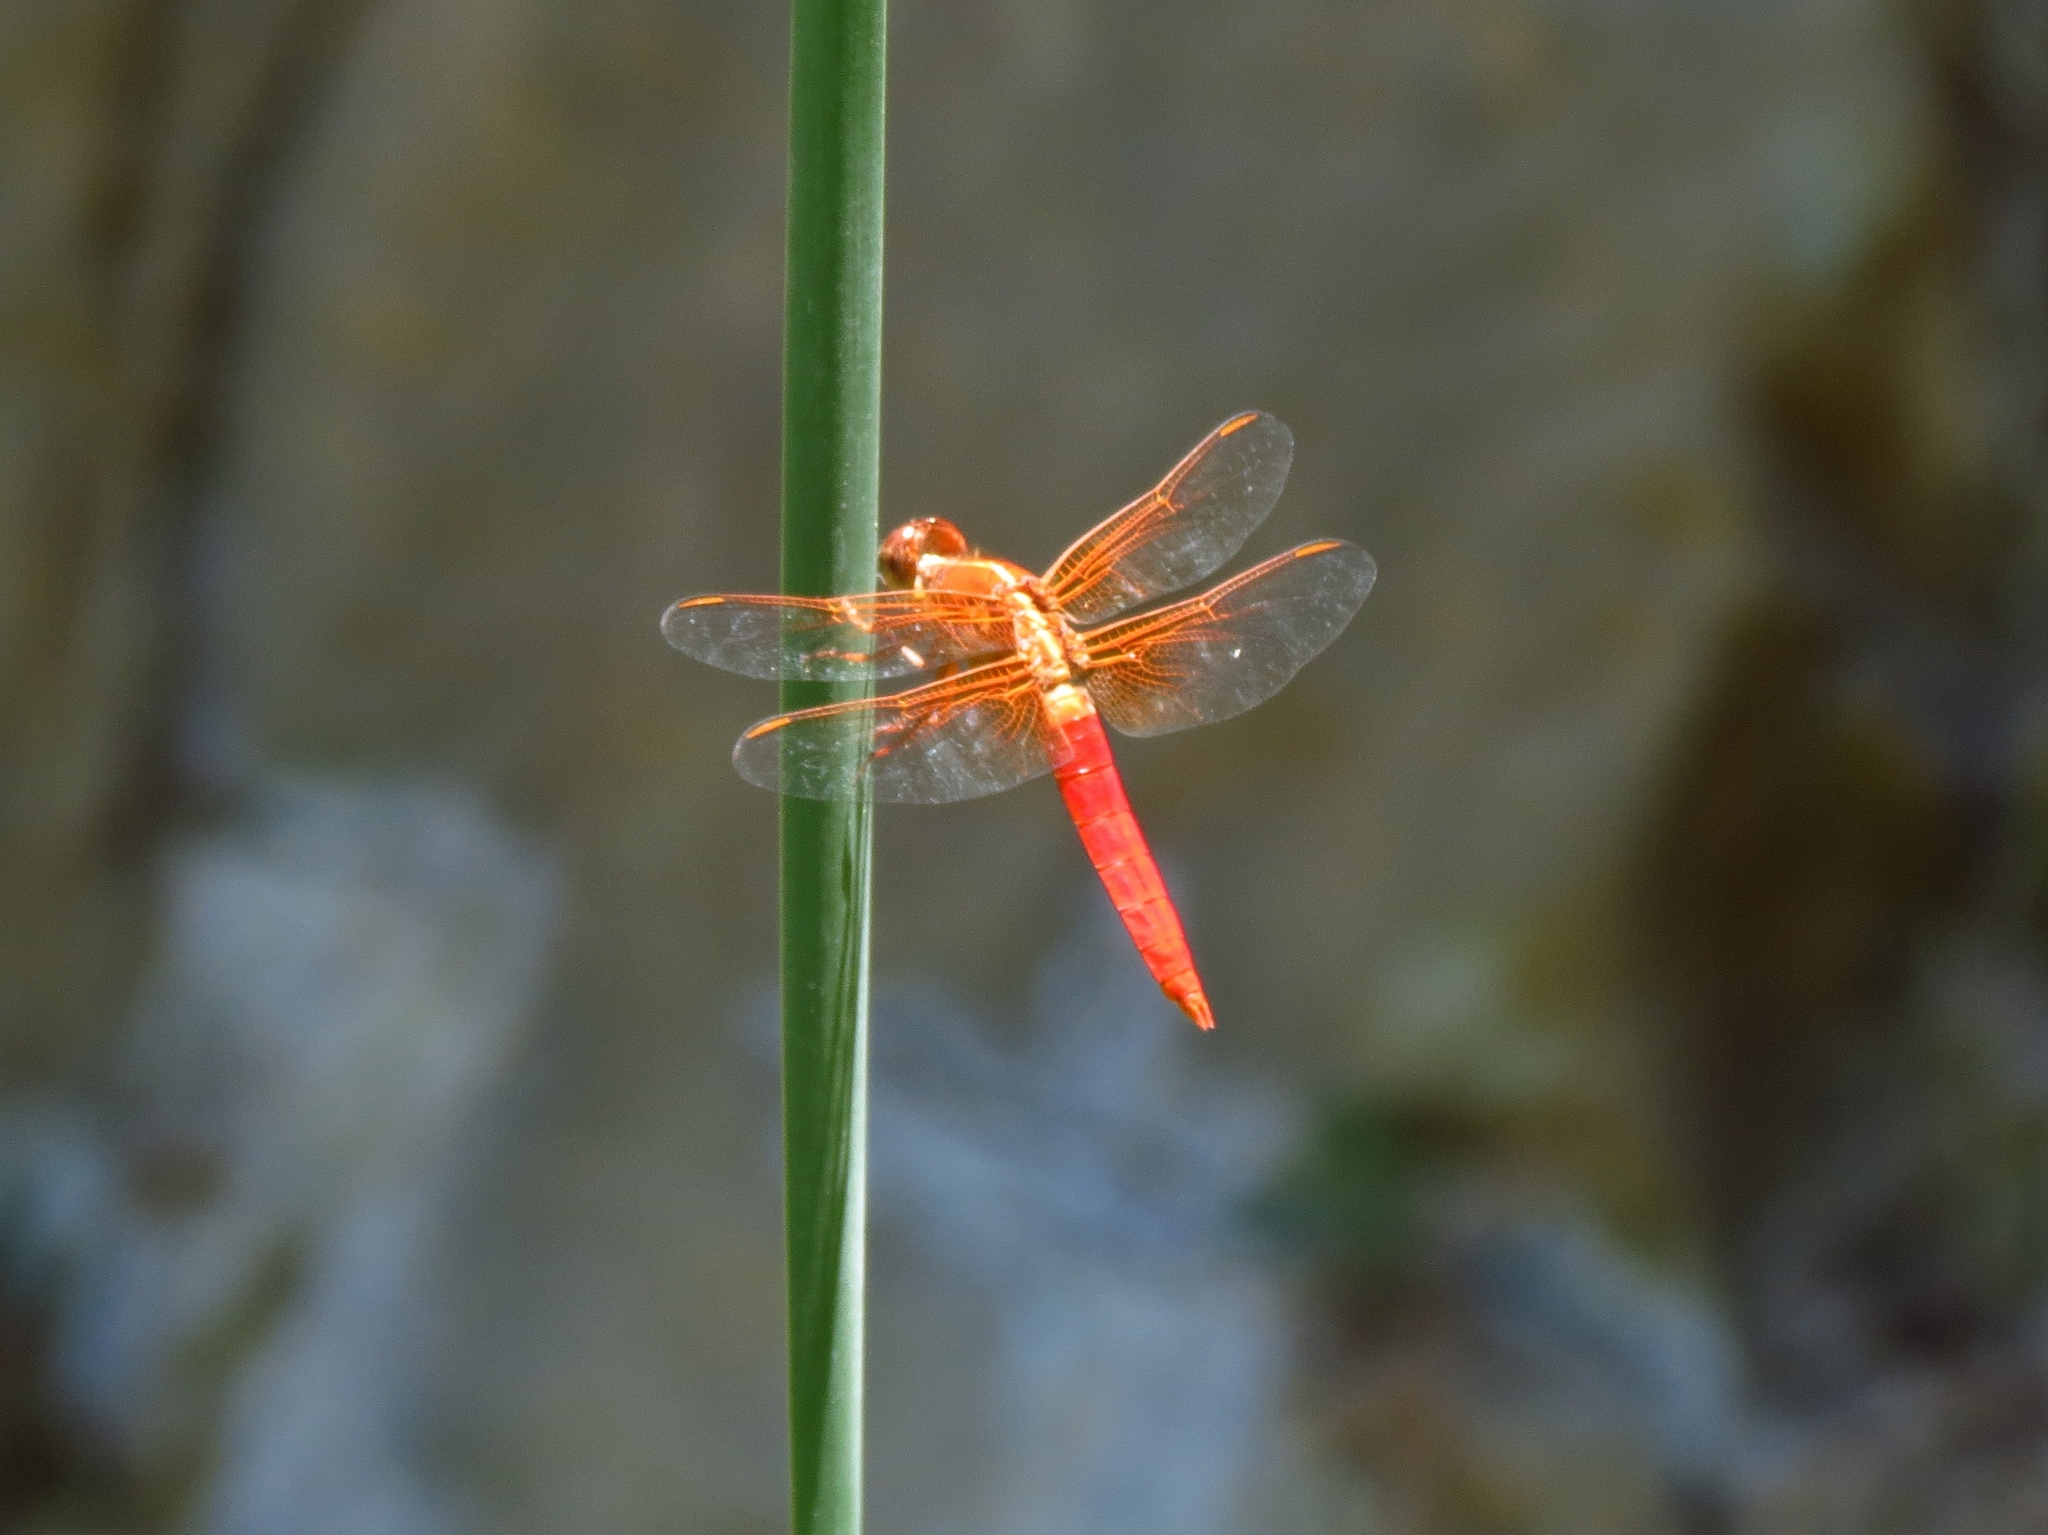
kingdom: Animalia
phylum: Arthropoda
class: Insecta
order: Odonata
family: Libellulidae
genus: Libellula
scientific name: Libellula croceipennis
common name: Neon skimmer
